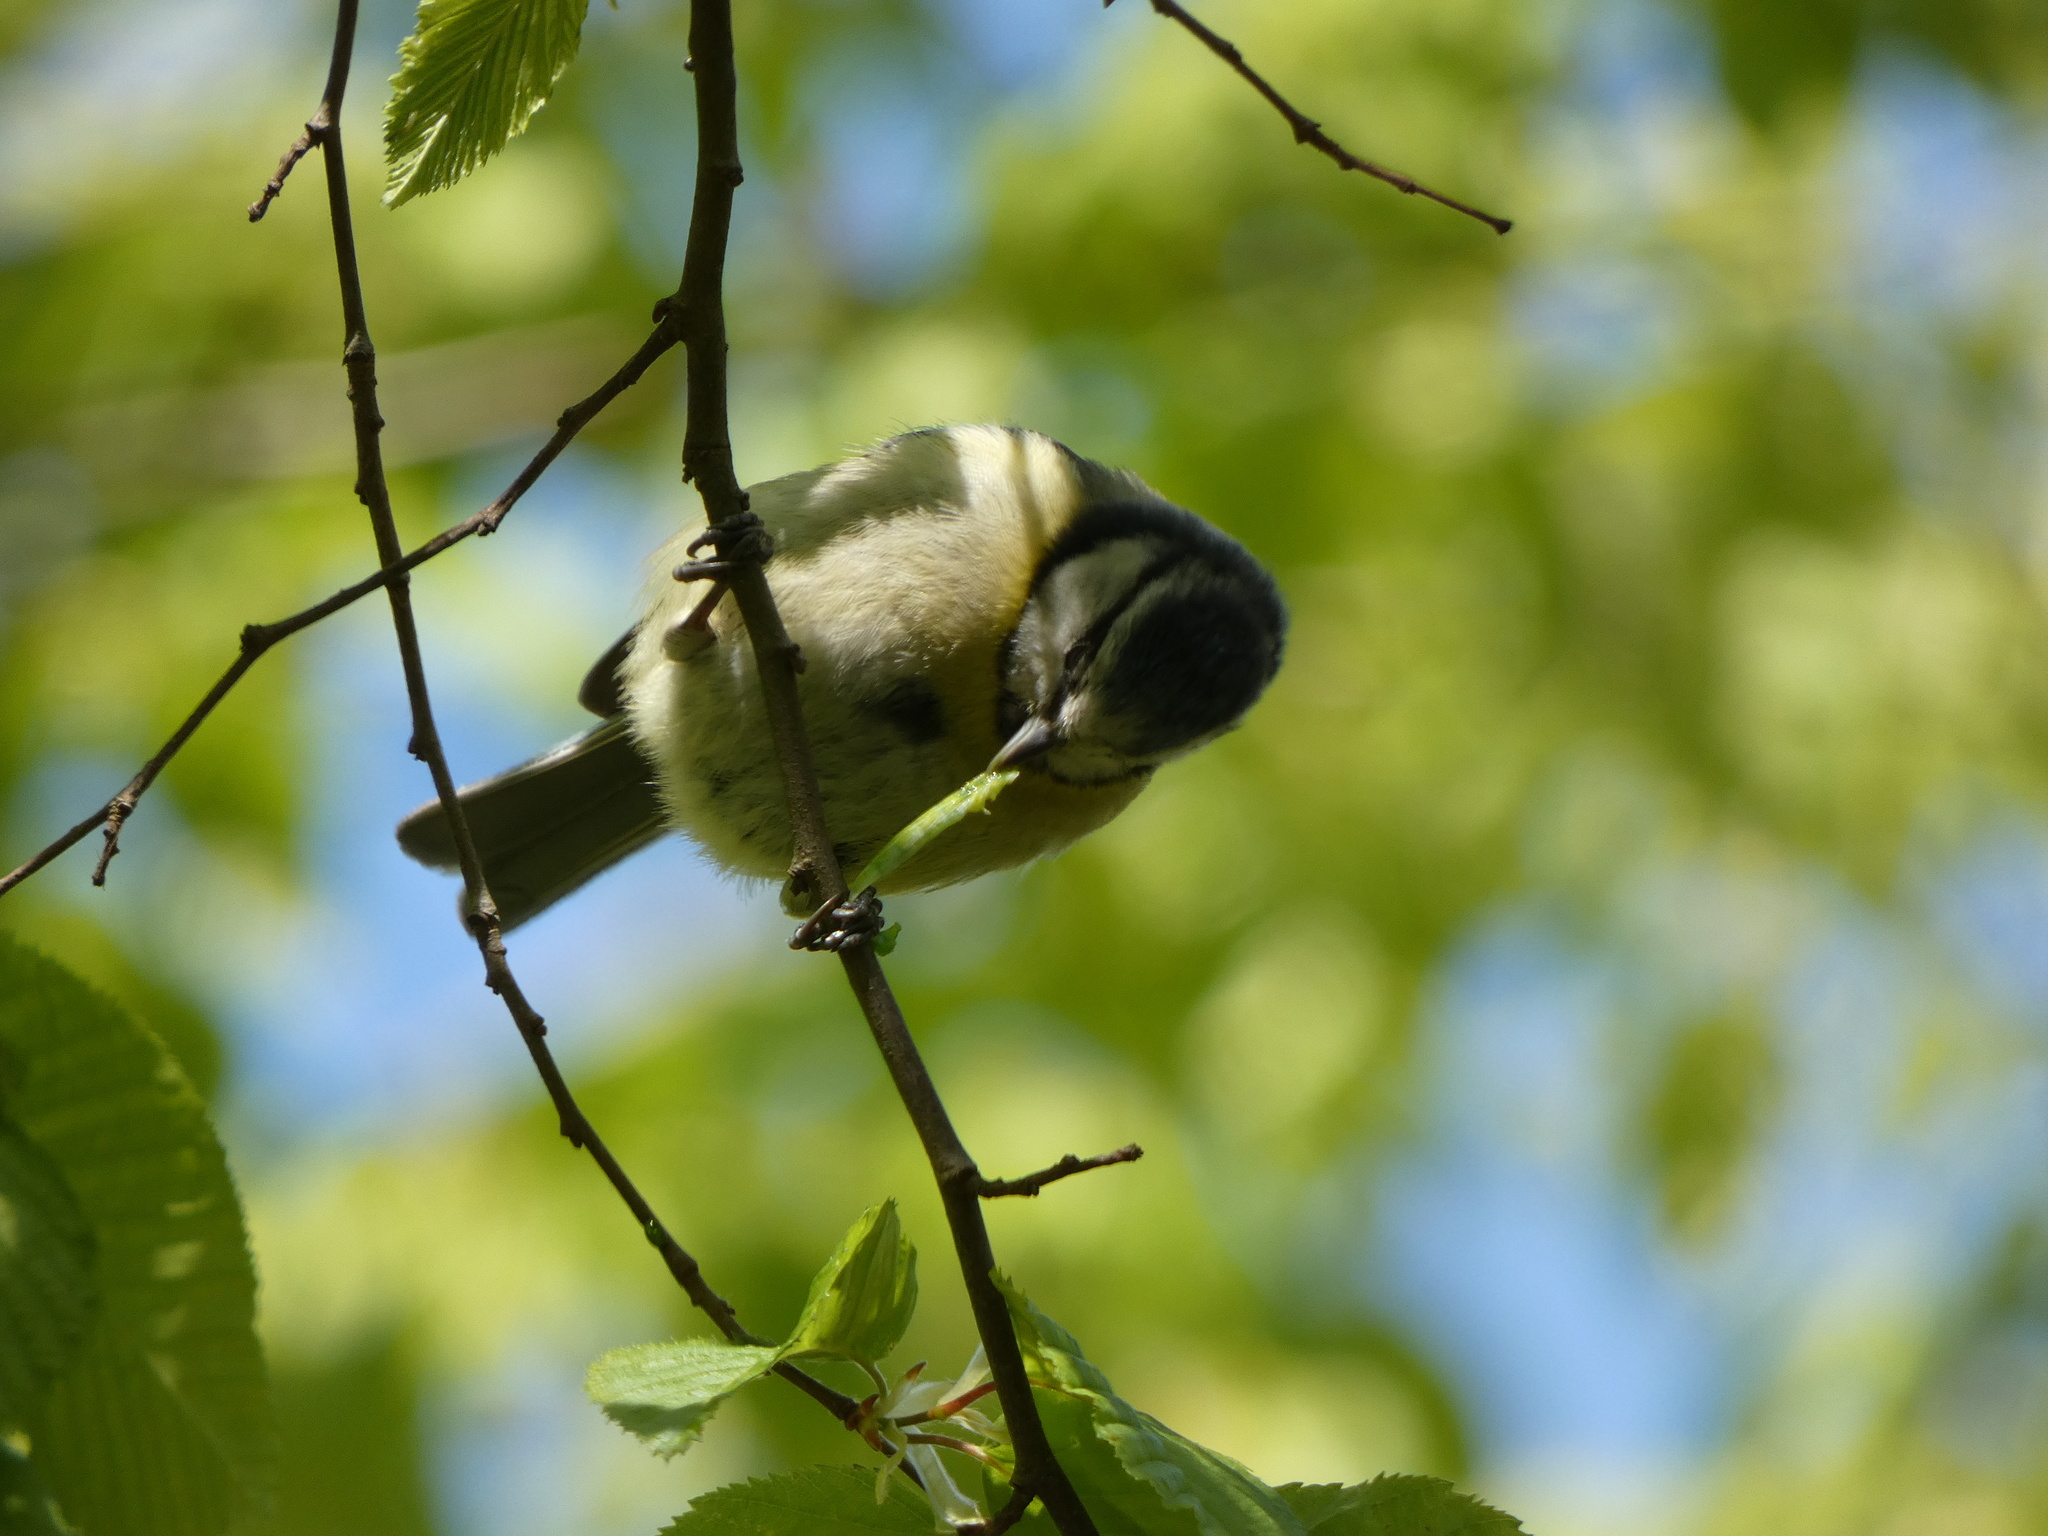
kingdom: Animalia
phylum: Chordata
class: Aves
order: Passeriformes
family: Paridae
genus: Cyanistes
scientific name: Cyanistes caeruleus
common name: Eurasian blue tit
